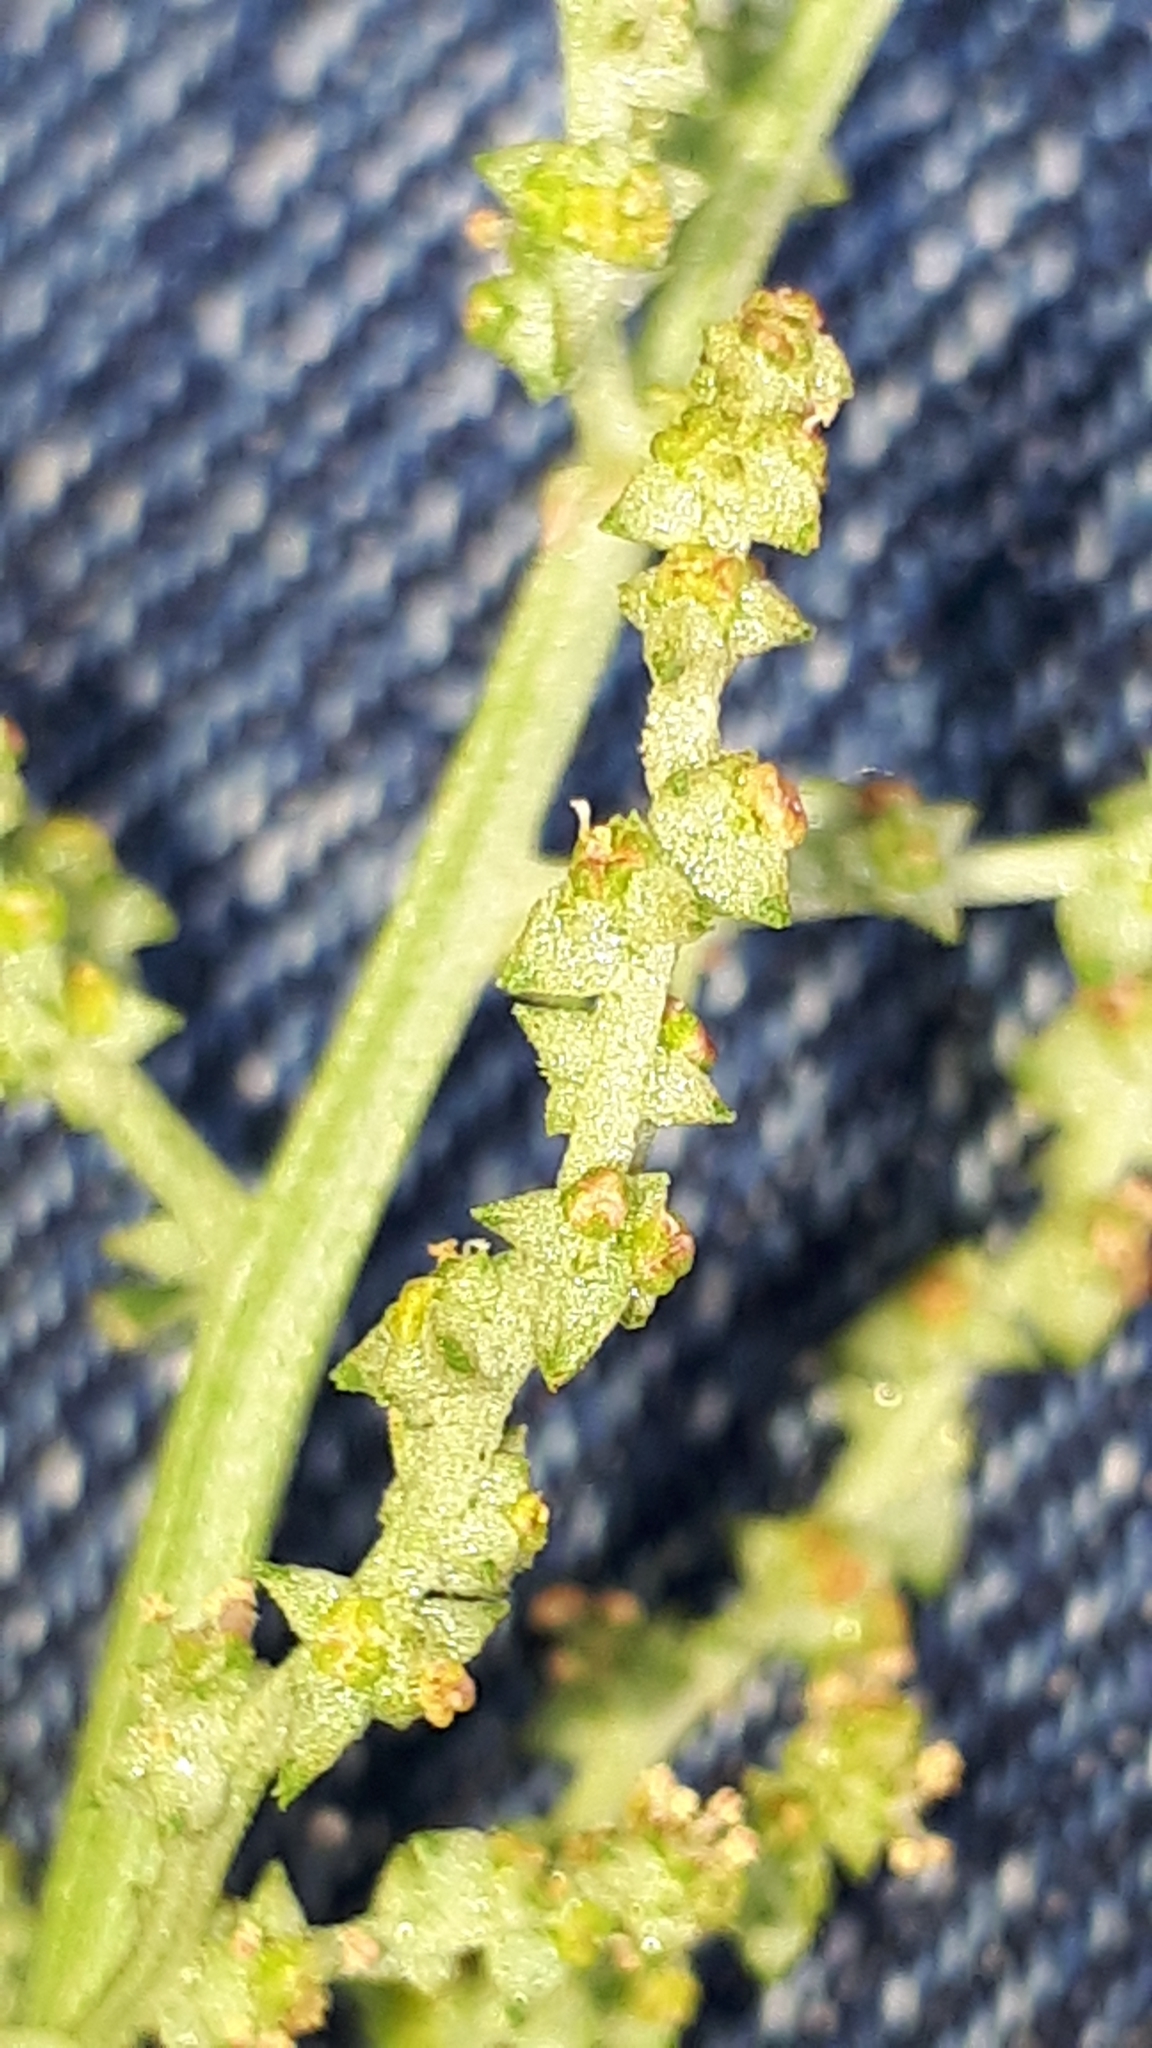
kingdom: Plantae
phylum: Tracheophyta
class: Magnoliopsida
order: Caryophyllales
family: Amaranthaceae
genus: Atriplex
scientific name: Atriplex patula
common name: Common orache
